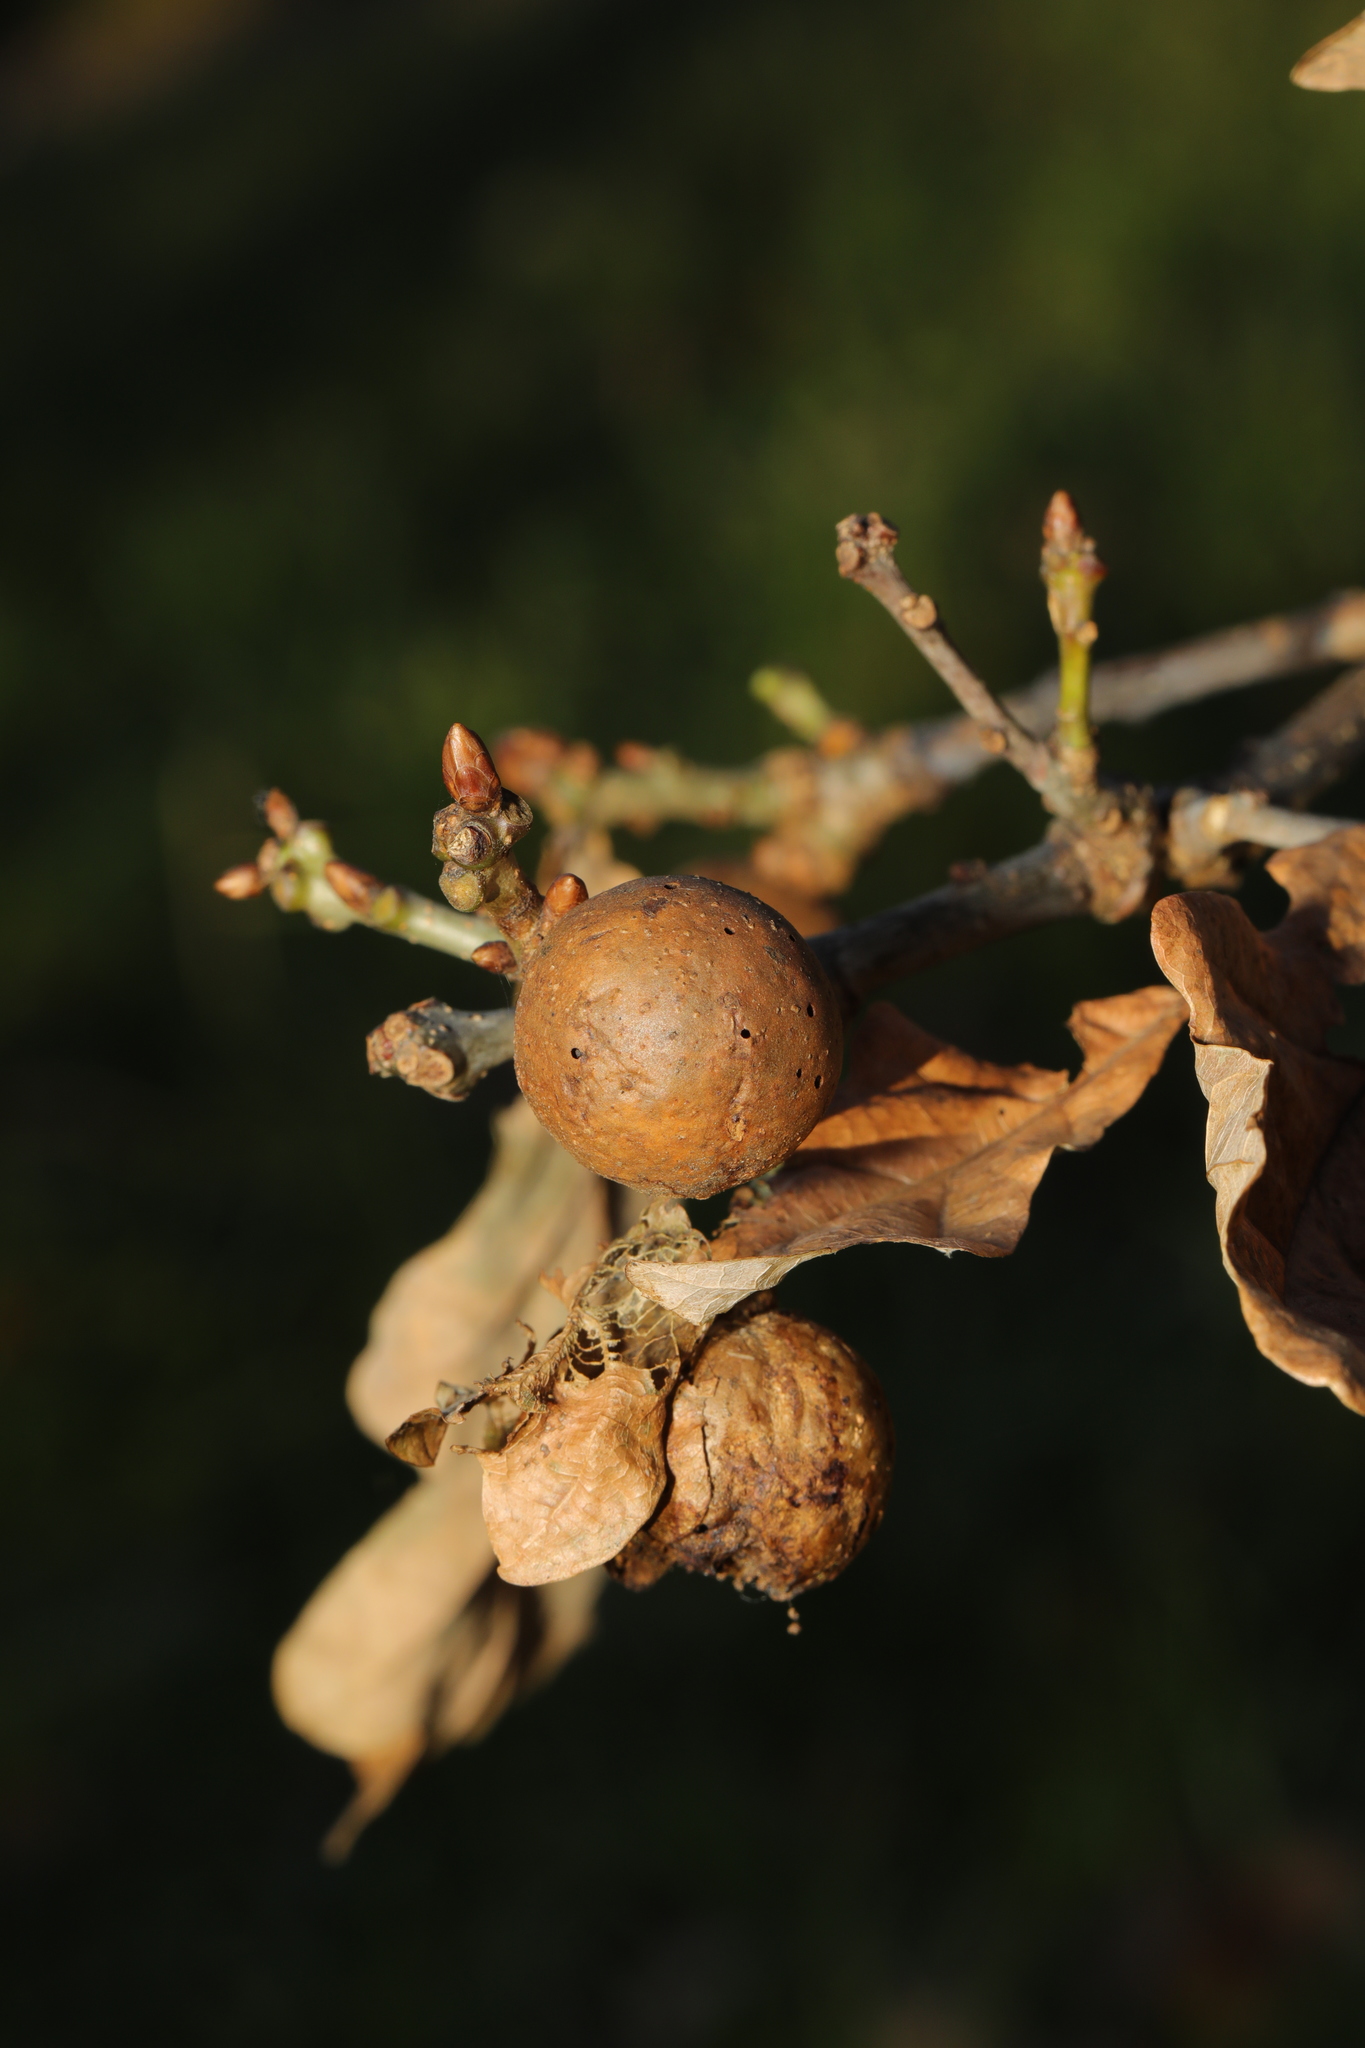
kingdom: Animalia
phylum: Arthropoda
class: Insecta
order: Hymenoptera
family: Cynipidae
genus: Andricus
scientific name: Andricus kollari
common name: Marble gall
